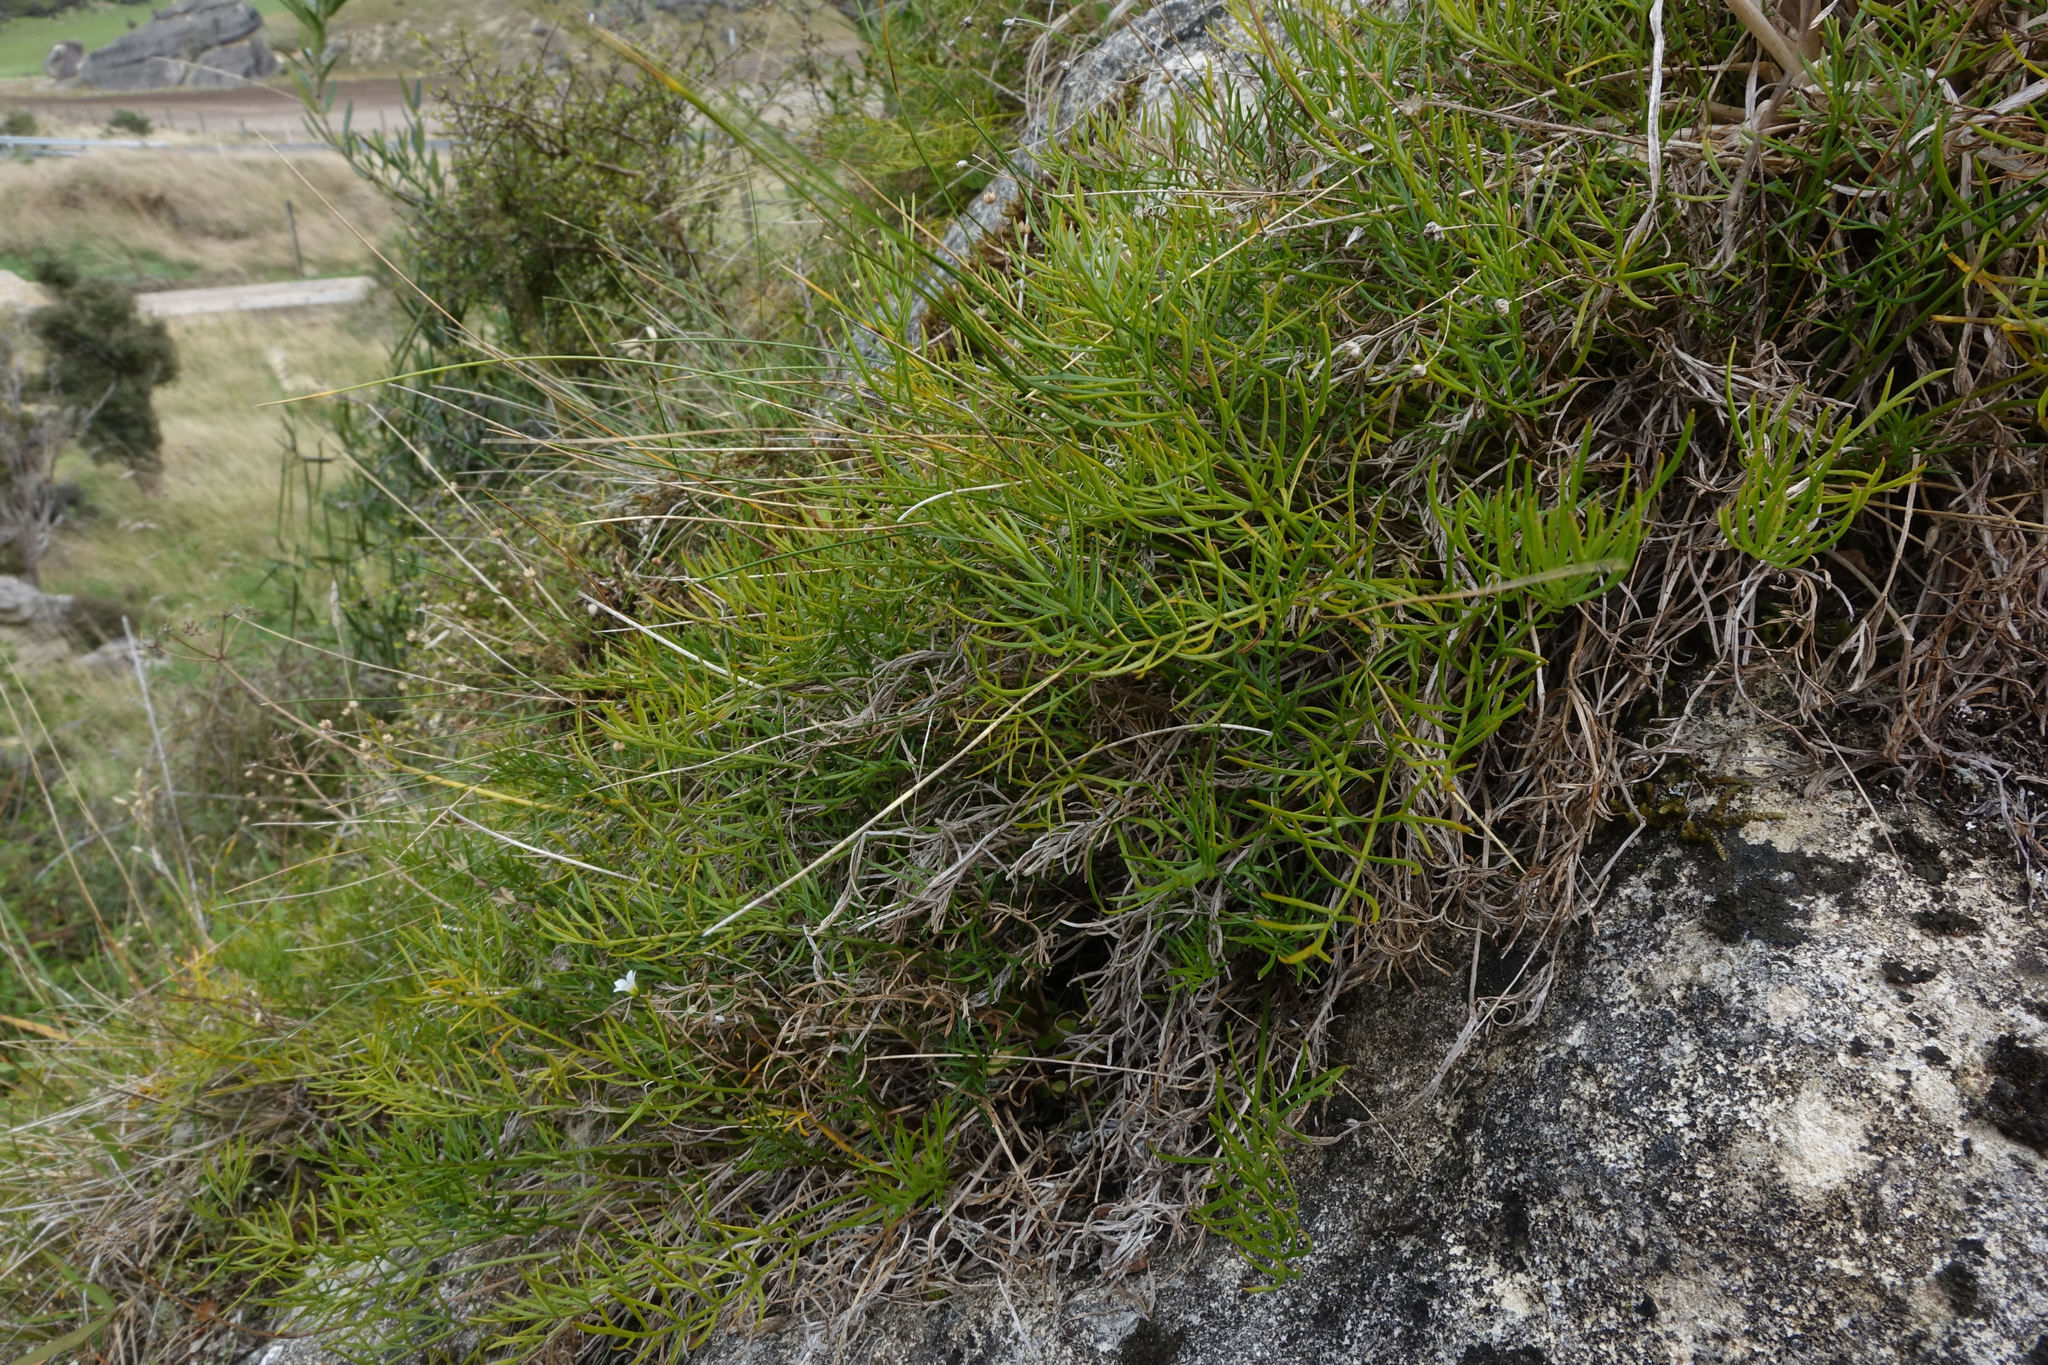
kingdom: Plantae
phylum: Tracheophyta
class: Magnoliopsida
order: Apiales
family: Apiaceae
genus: Anisotome
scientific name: Anisotome brevistylis
